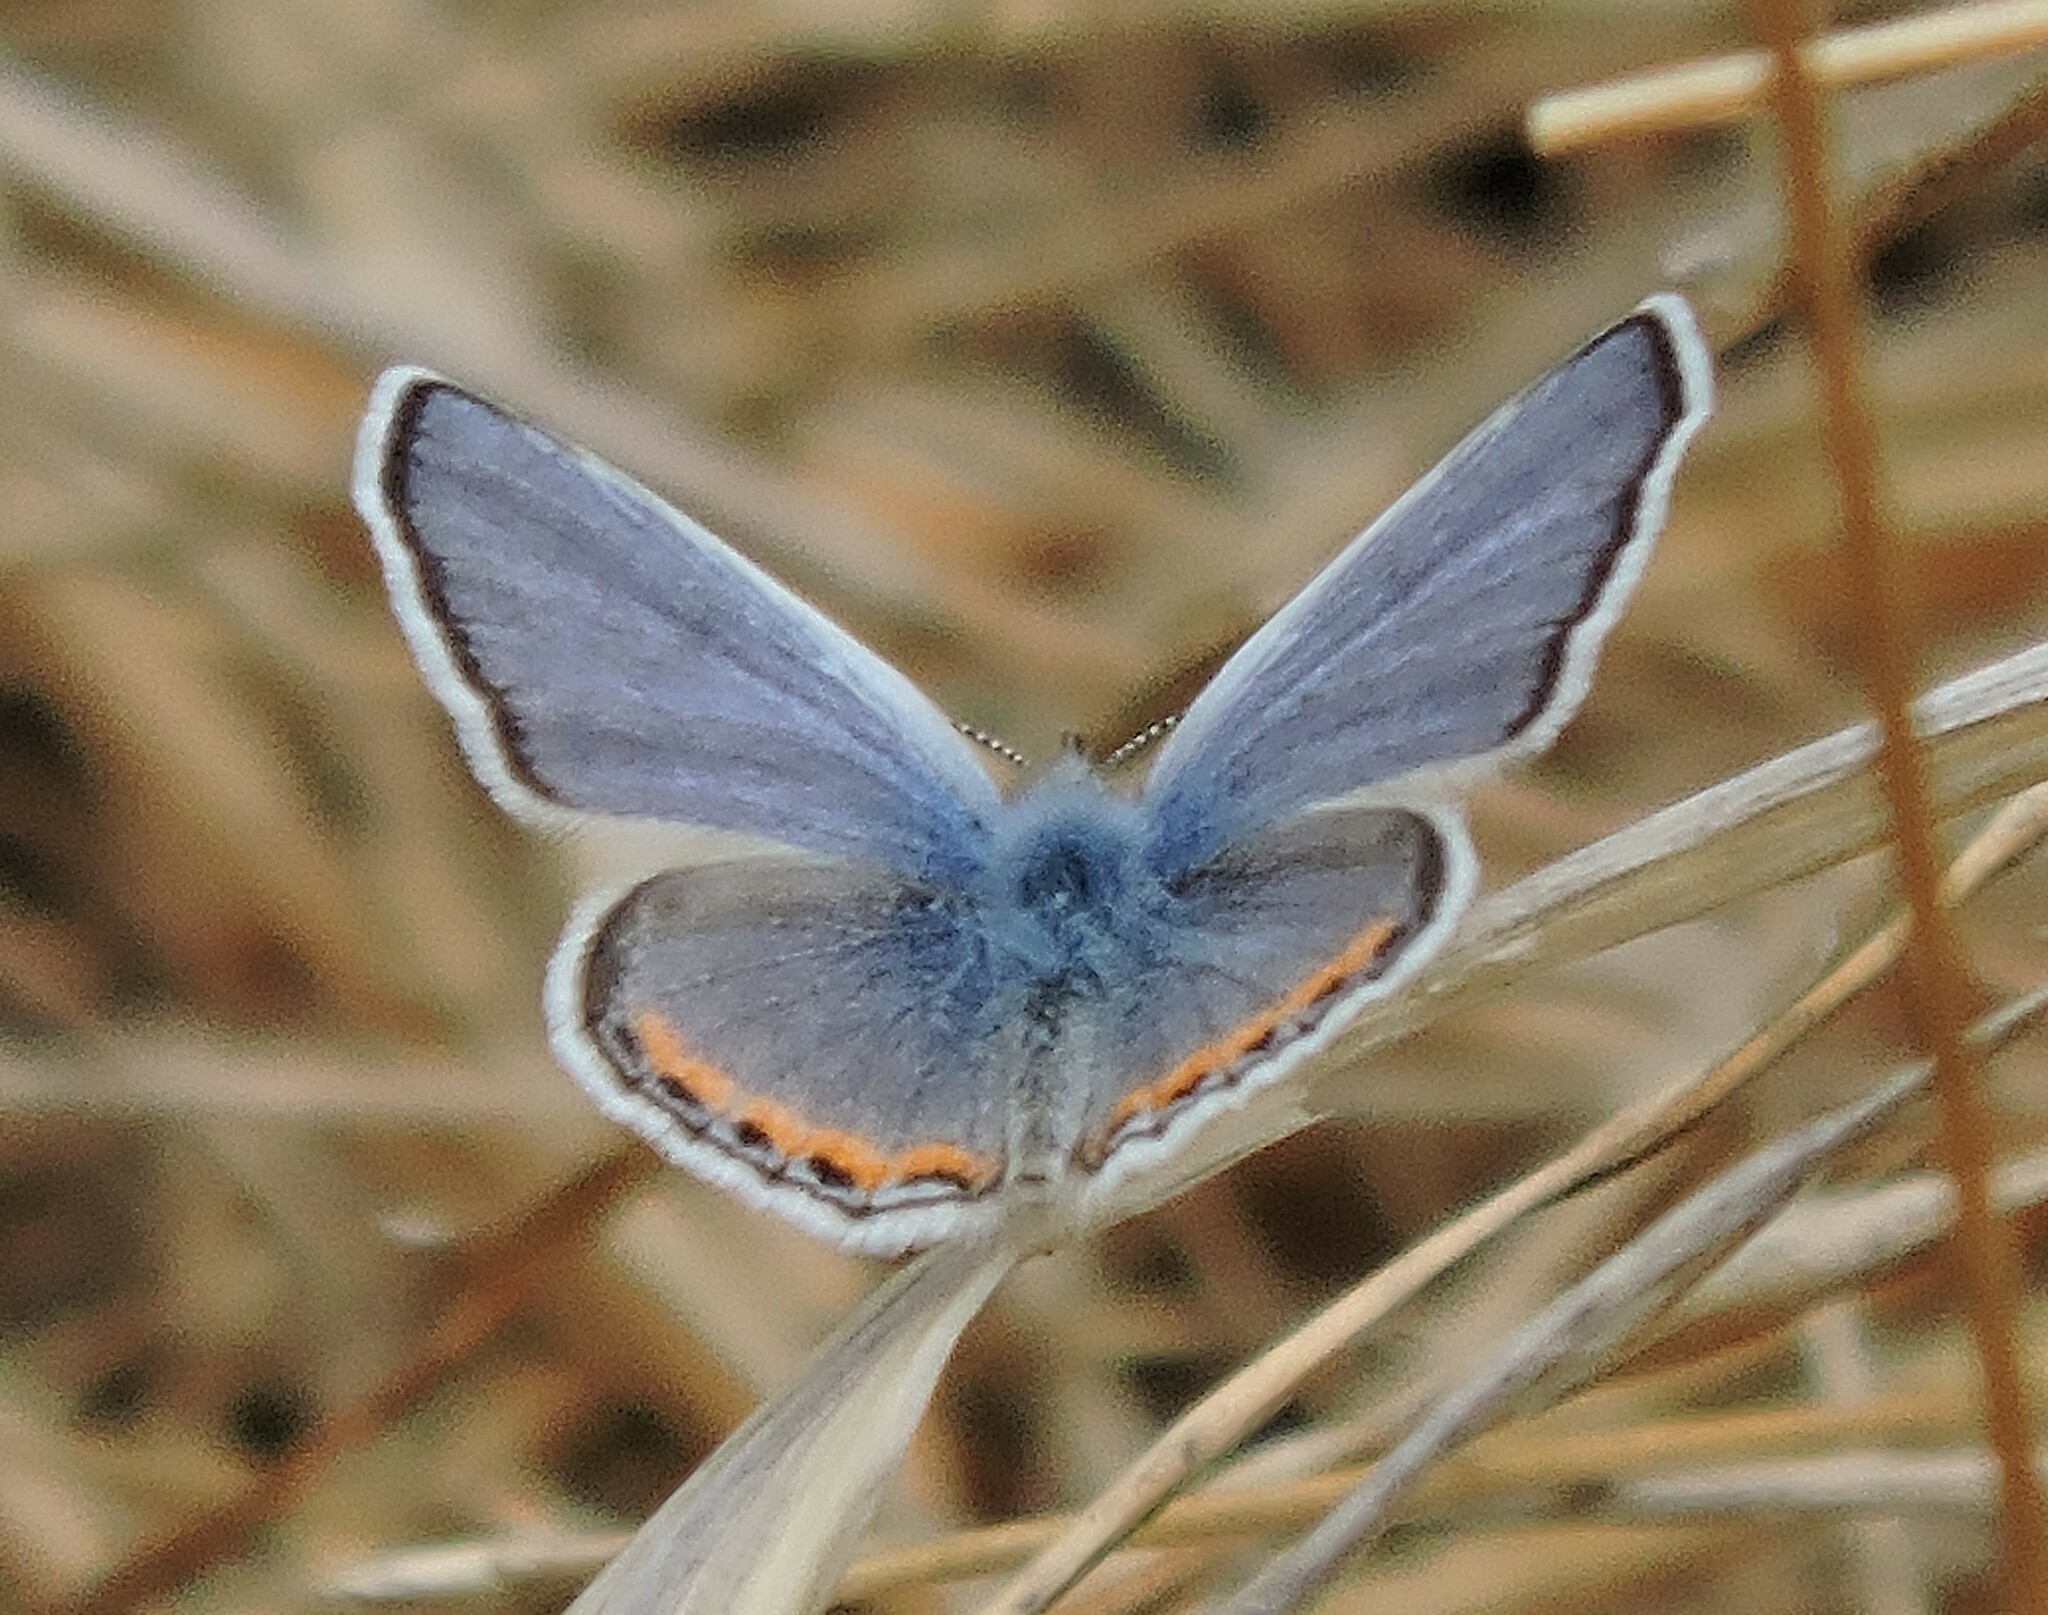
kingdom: Animalia
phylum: Arthropoda
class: Insecta
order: Lepidoptera
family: Lycaenidae
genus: Icaricia
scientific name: Icaricia acmon
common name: Acmon blue
